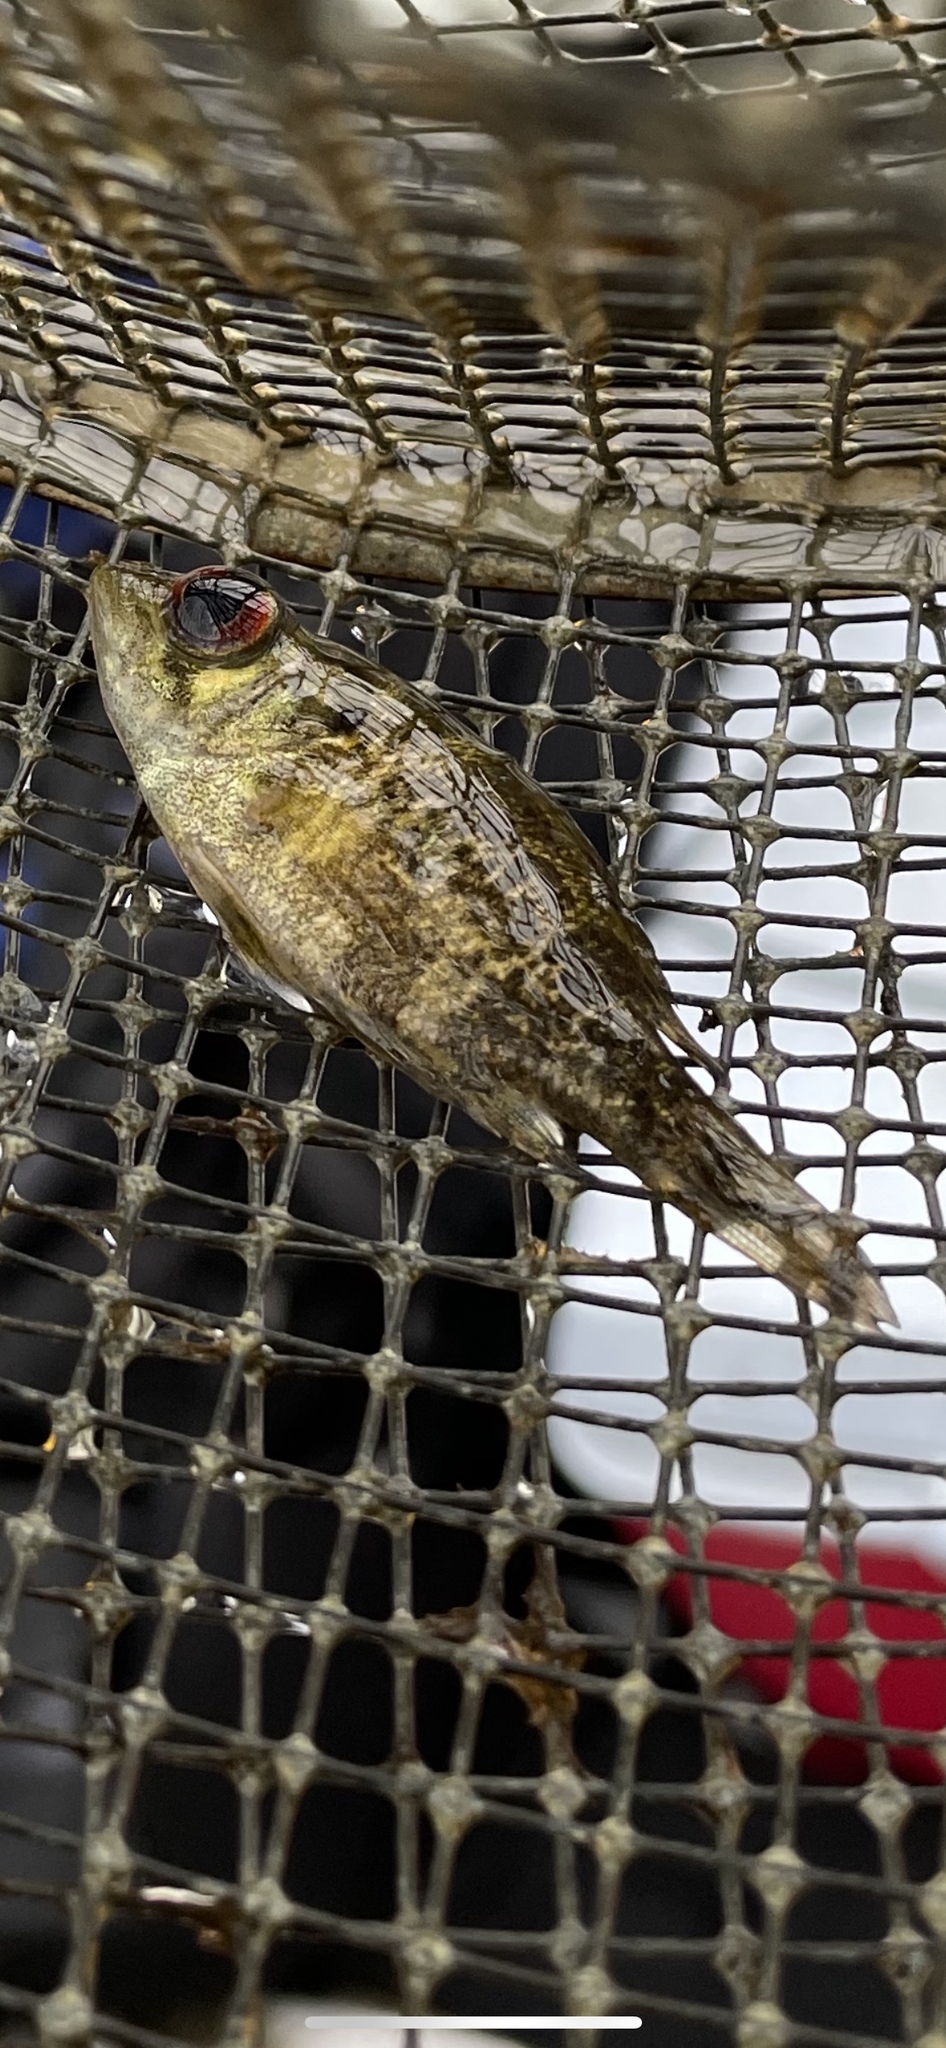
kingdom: Animalia
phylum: Chordata
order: Perciformes
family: Centrarchidae
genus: Ambloplites
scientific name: Ambloplites rupestris
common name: Rock bass
